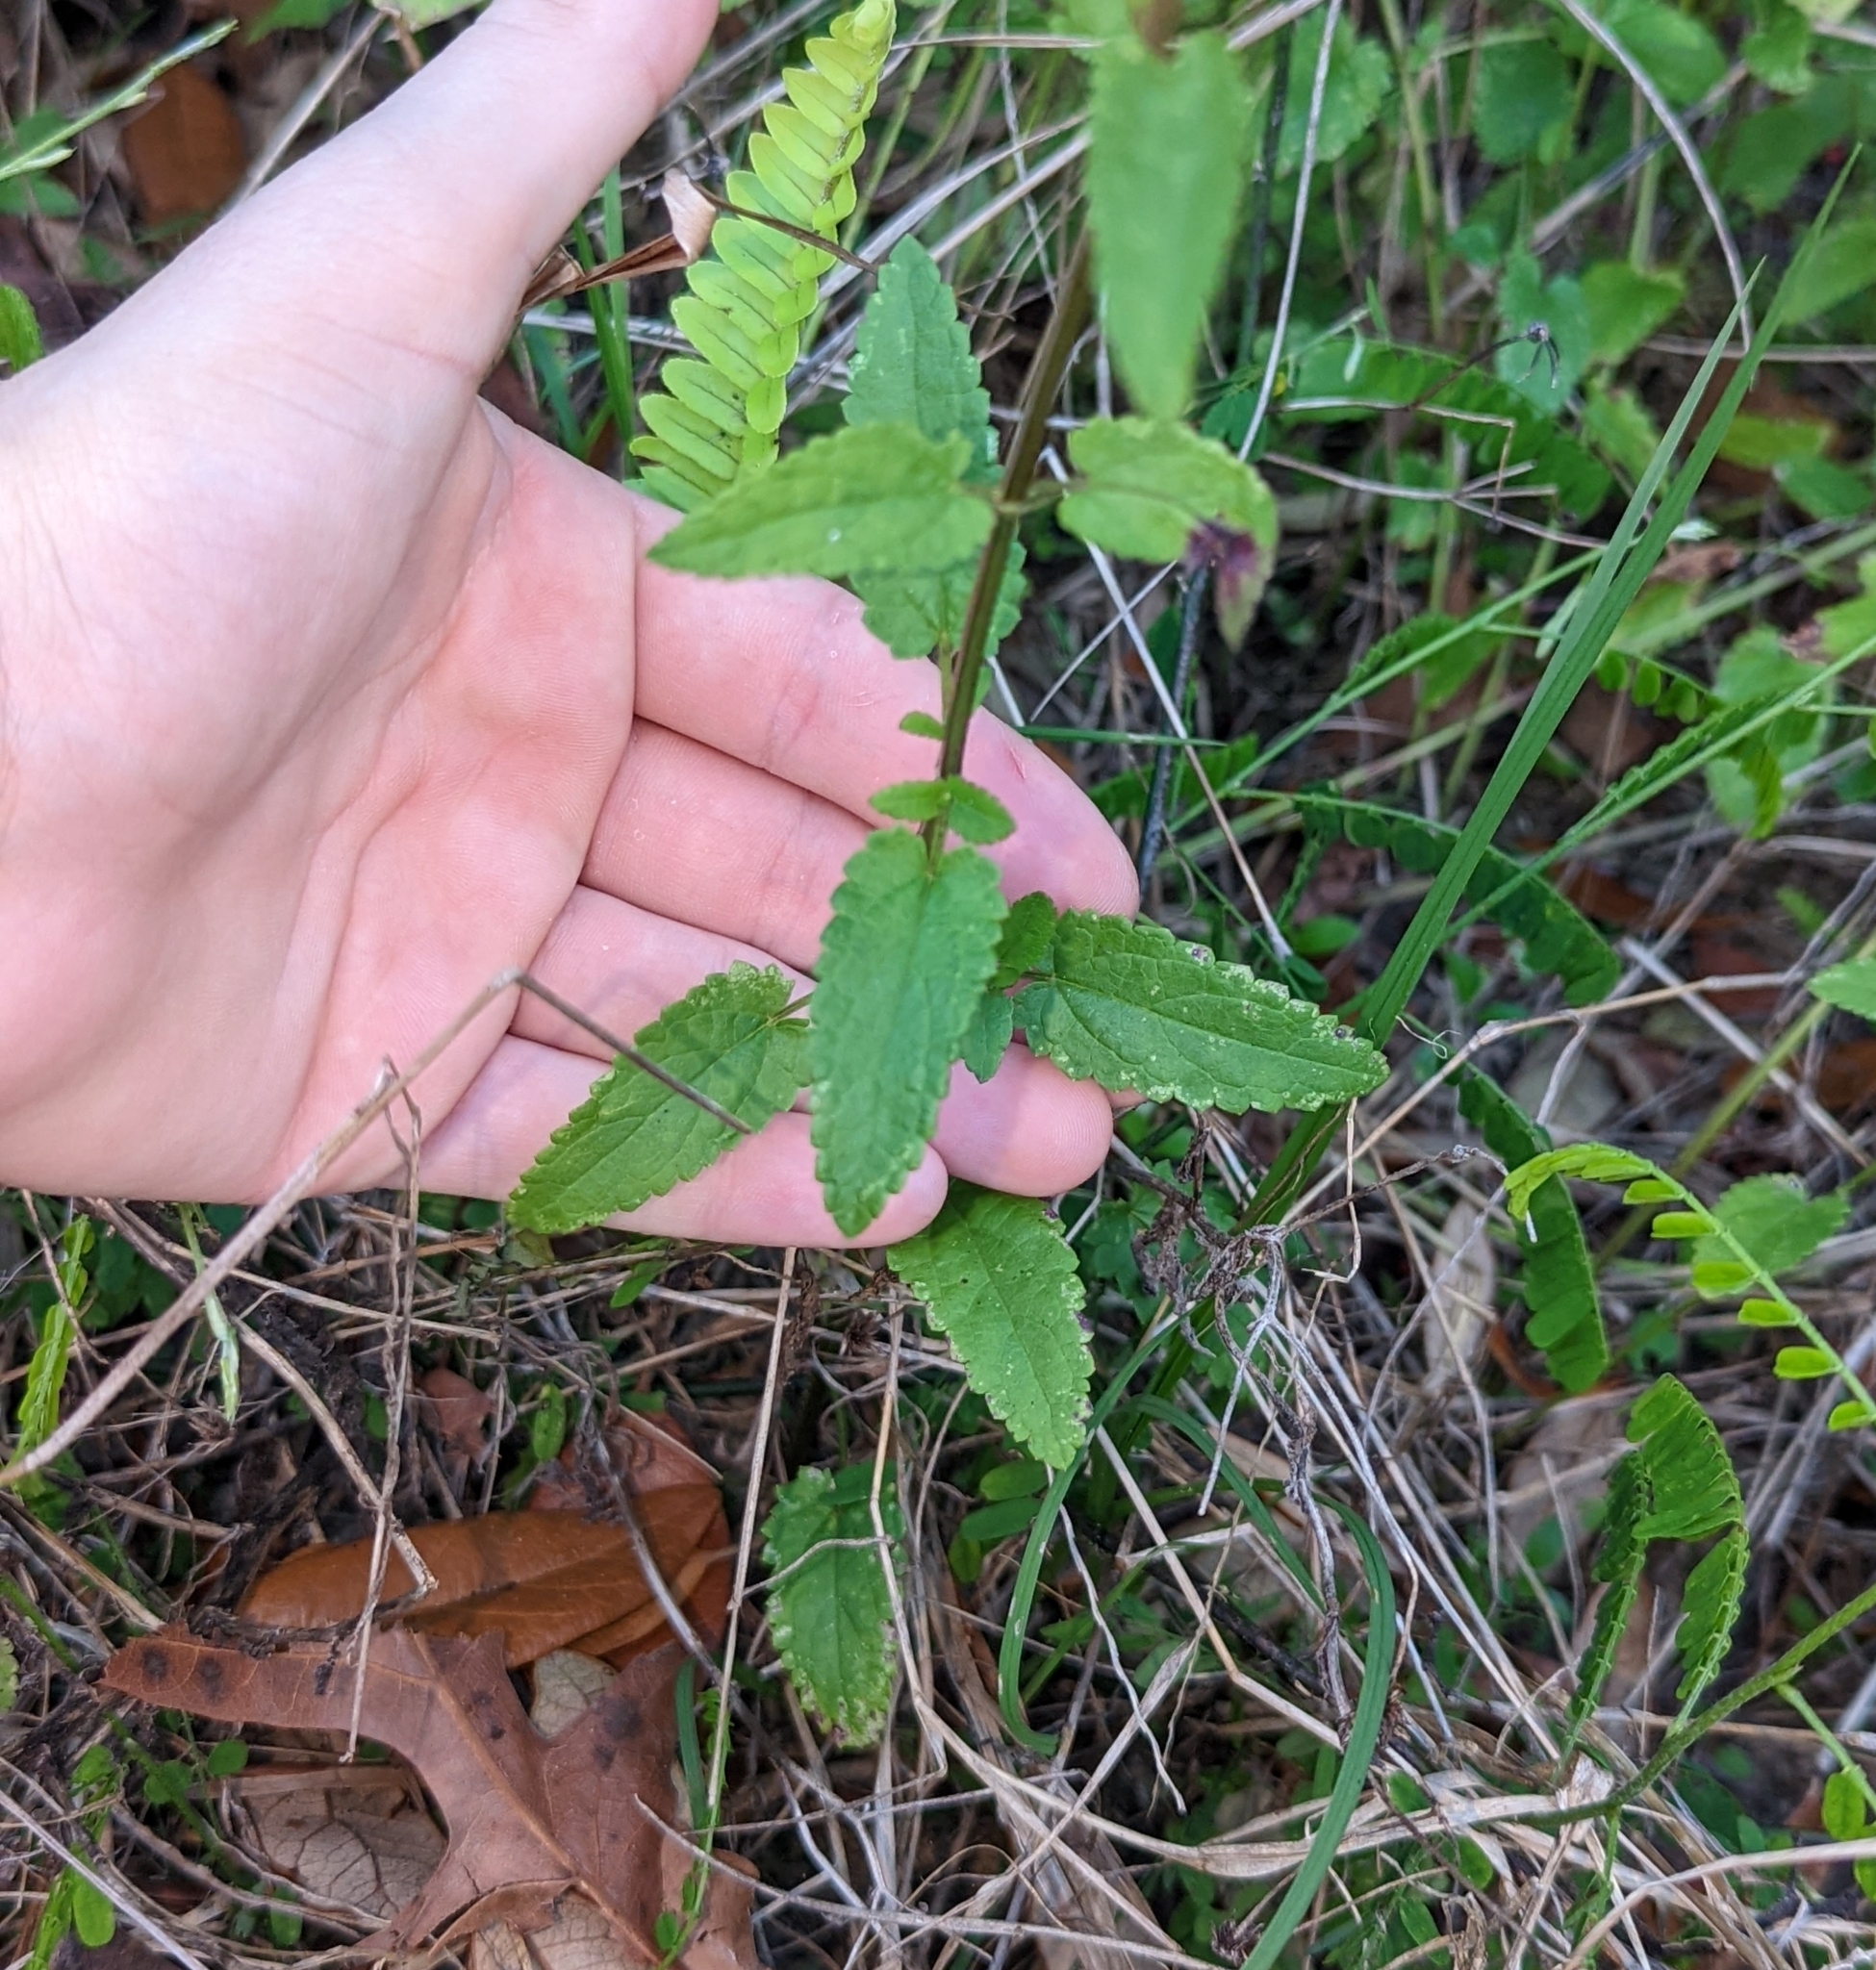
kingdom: Plantae
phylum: Tracheophyta
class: Magnoliopsida
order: Lamiales
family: Lamiaceae
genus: Stachys
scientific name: Stachys floridana
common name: Florida betony
